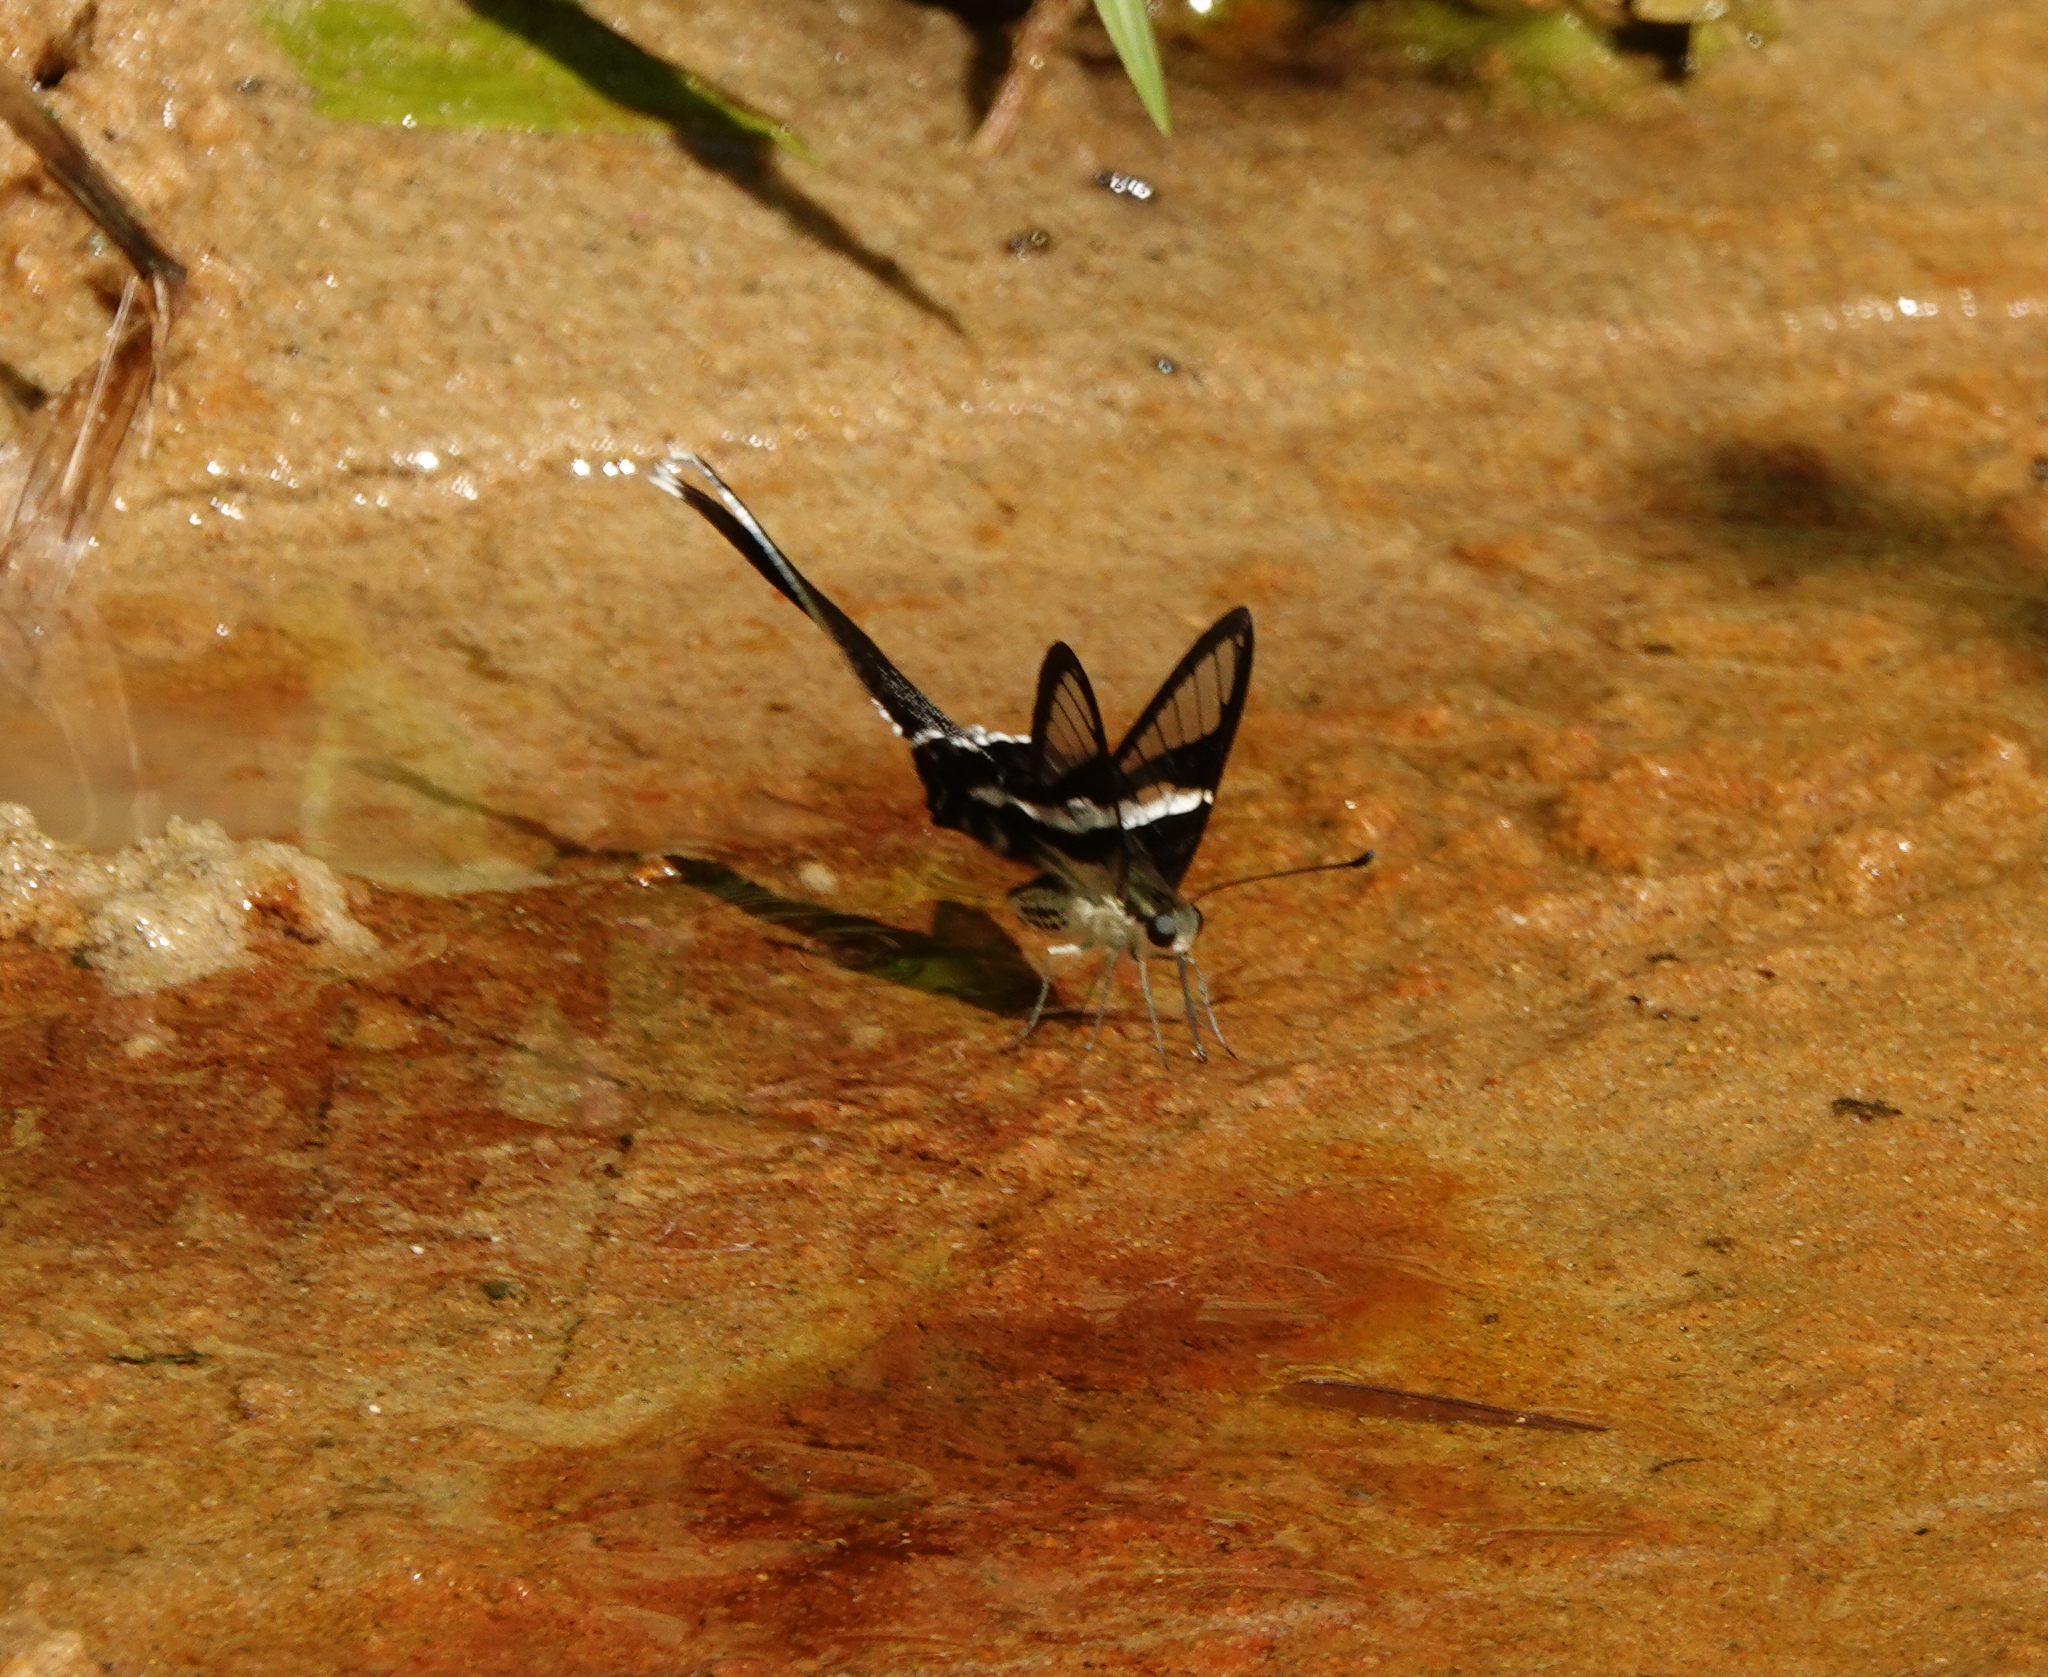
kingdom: Animalia
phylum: Arthropoda
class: Insecta
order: Lepidoptera
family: Papilionidae
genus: Lamproptera
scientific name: Lamproptera curius
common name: White dragontail
